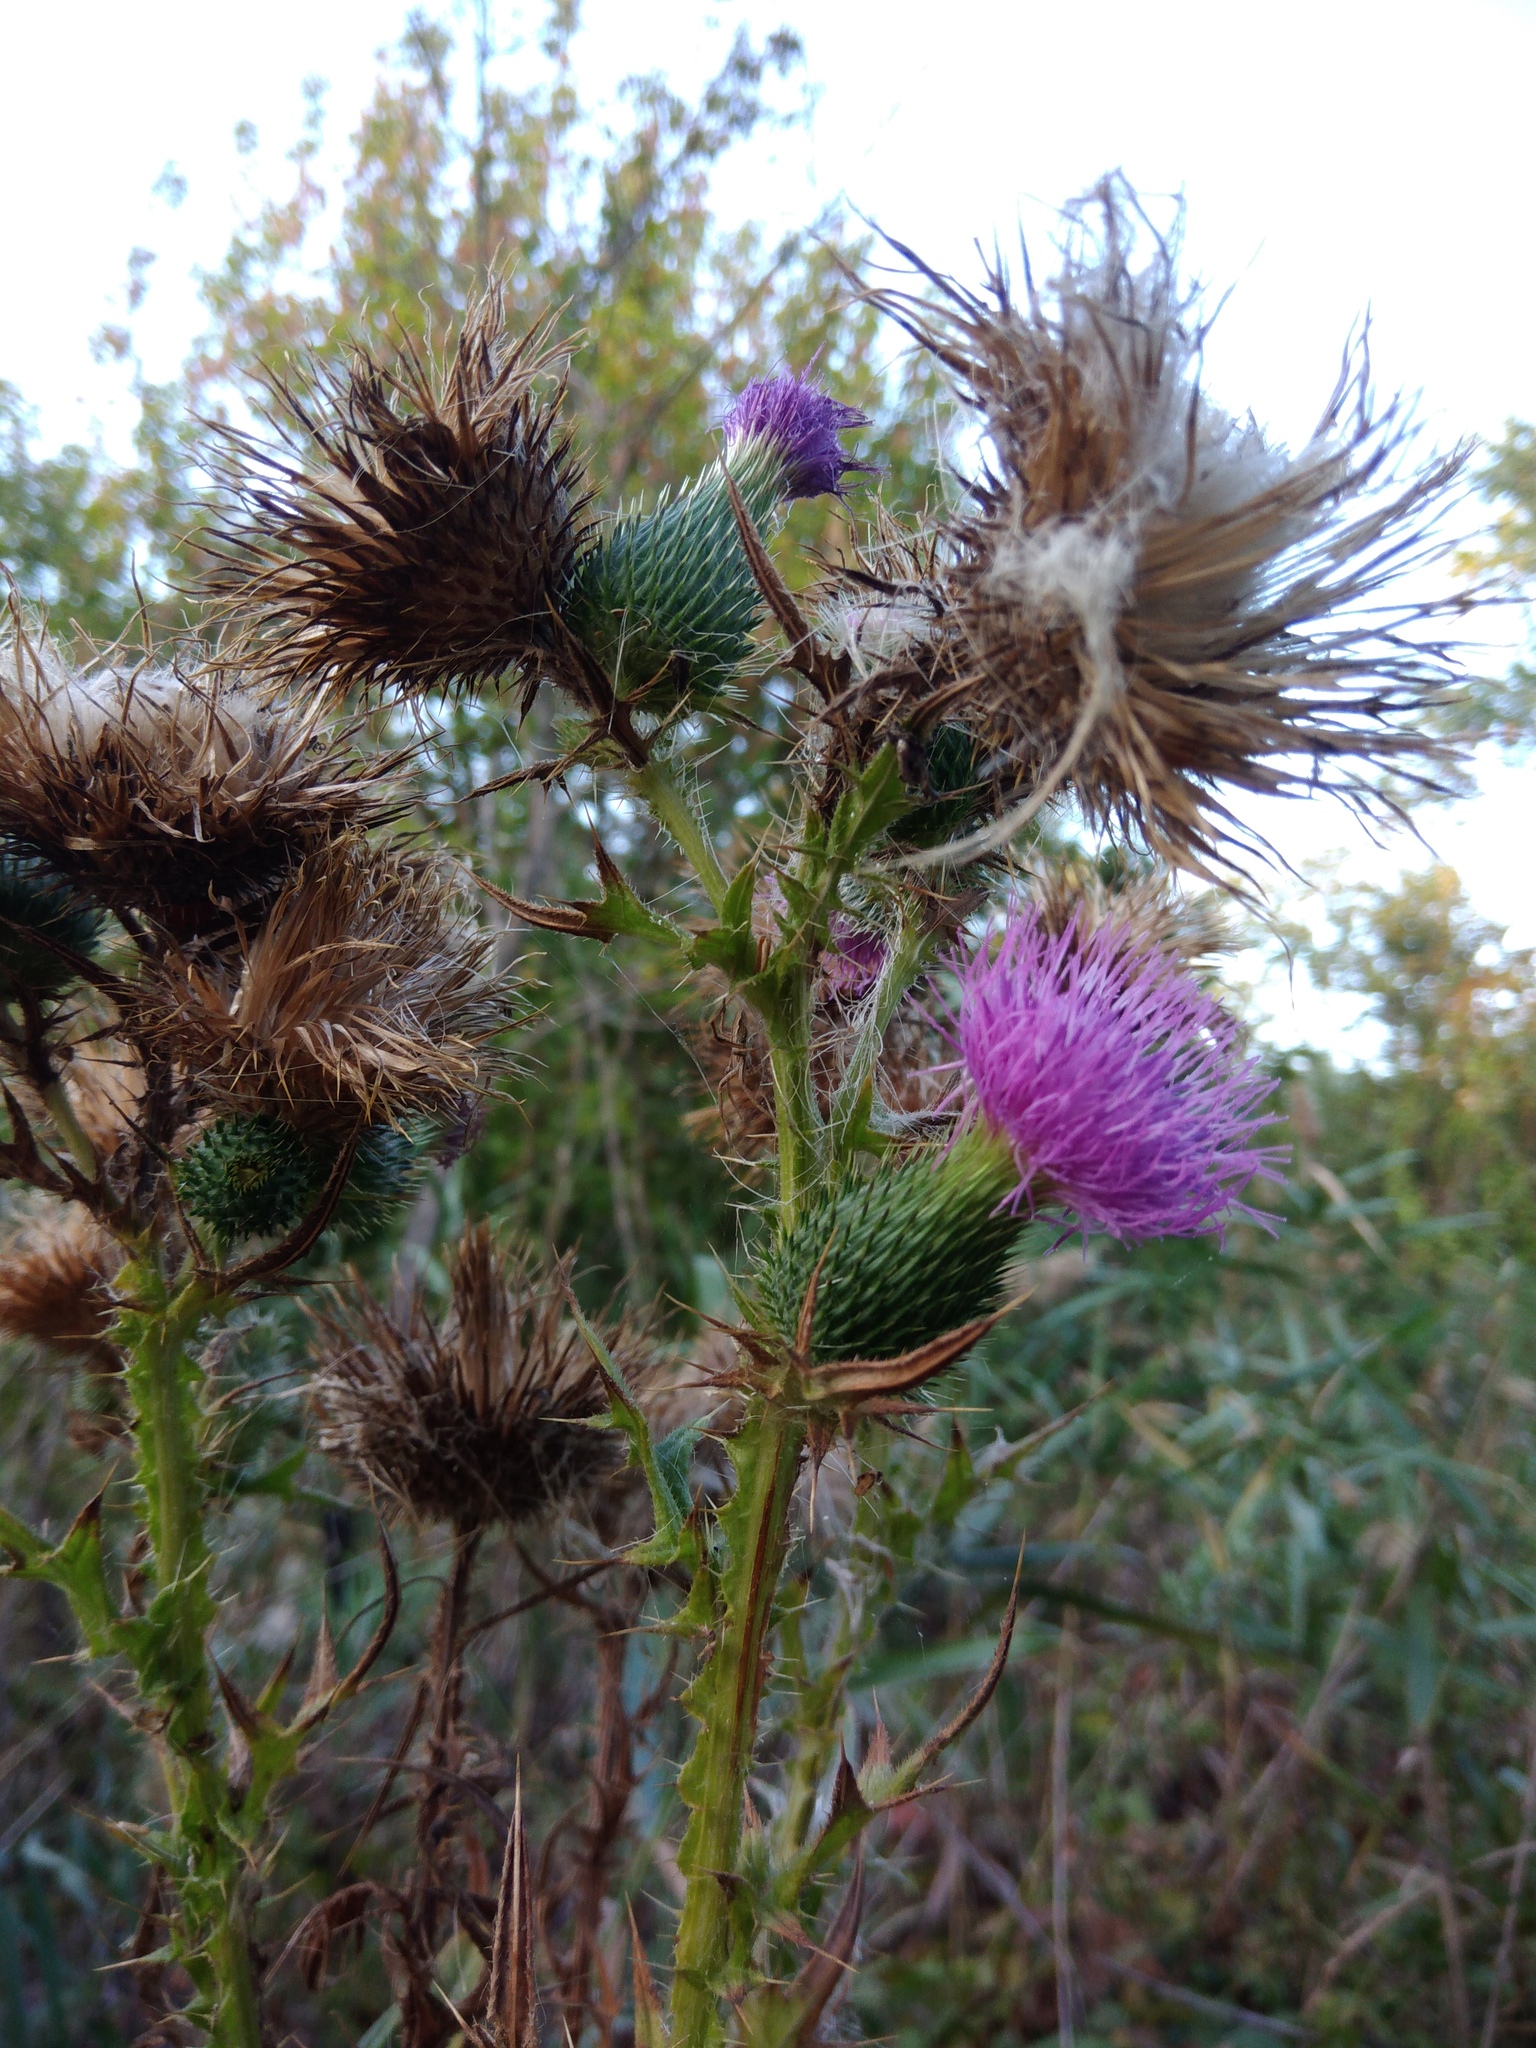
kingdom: Plantae
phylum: Tracheophyta
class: Magnoliopsida
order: Asterales
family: Asteraceae
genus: Cirsium
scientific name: Cirsium vulgare
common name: Bull thistle
